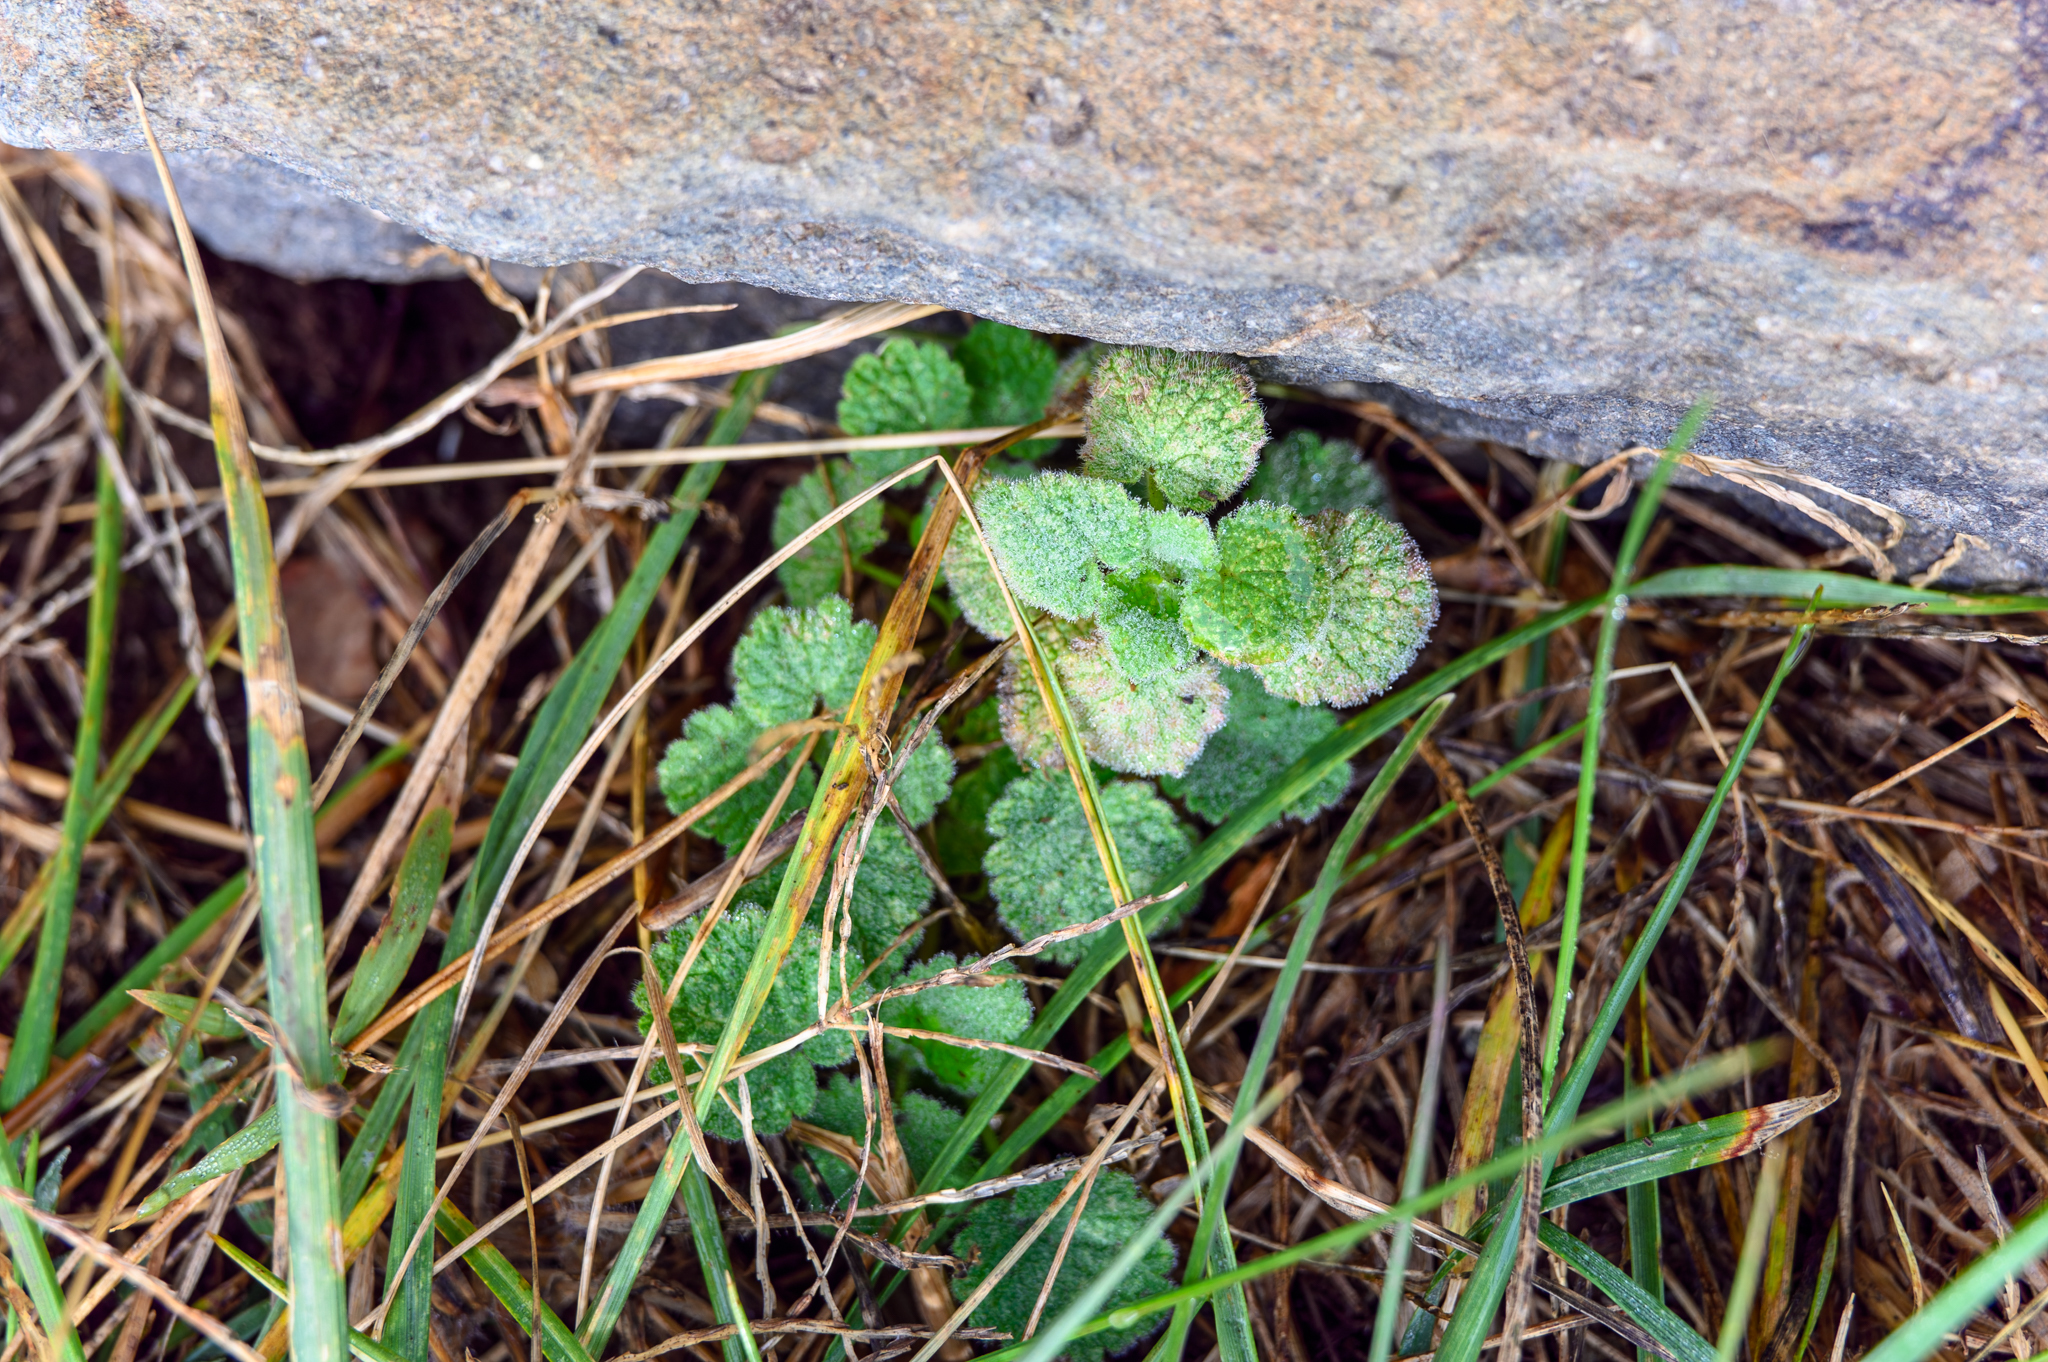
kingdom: Plantae
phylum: Tracheophyta
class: Magnoliopsida
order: Lamiales
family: Lamiaceae
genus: Lamium
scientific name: Lamium purpureum
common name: Red dead-nettle
